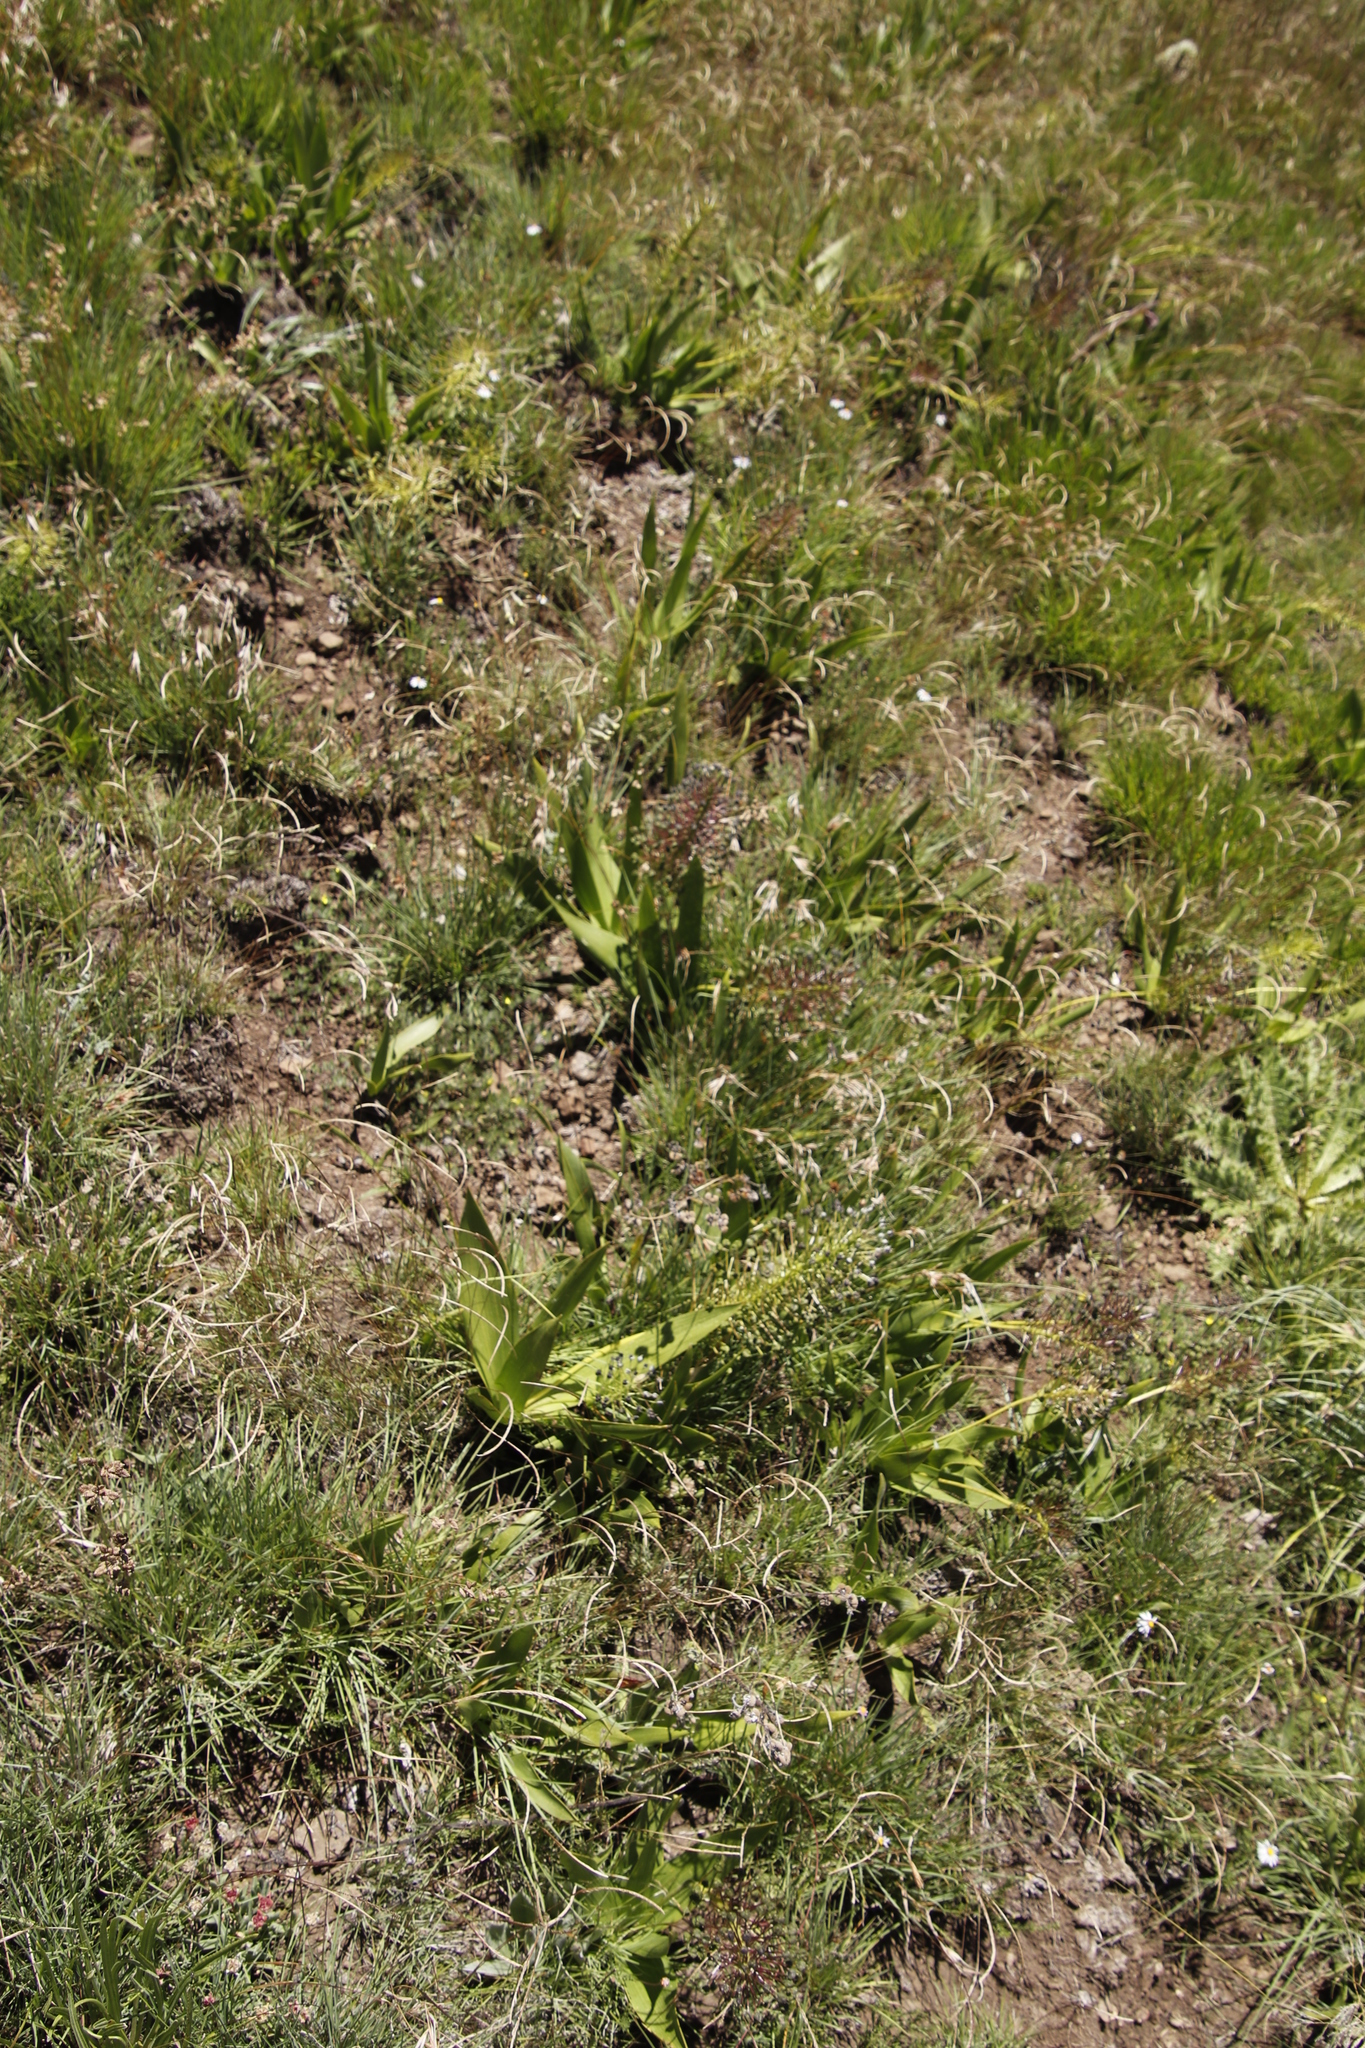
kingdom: Plantae
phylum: Tracheophyta
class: Liliopsida
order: Asparagales
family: Asparagaceae
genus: Schizocarphus
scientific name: Schizocarphus nervosus
